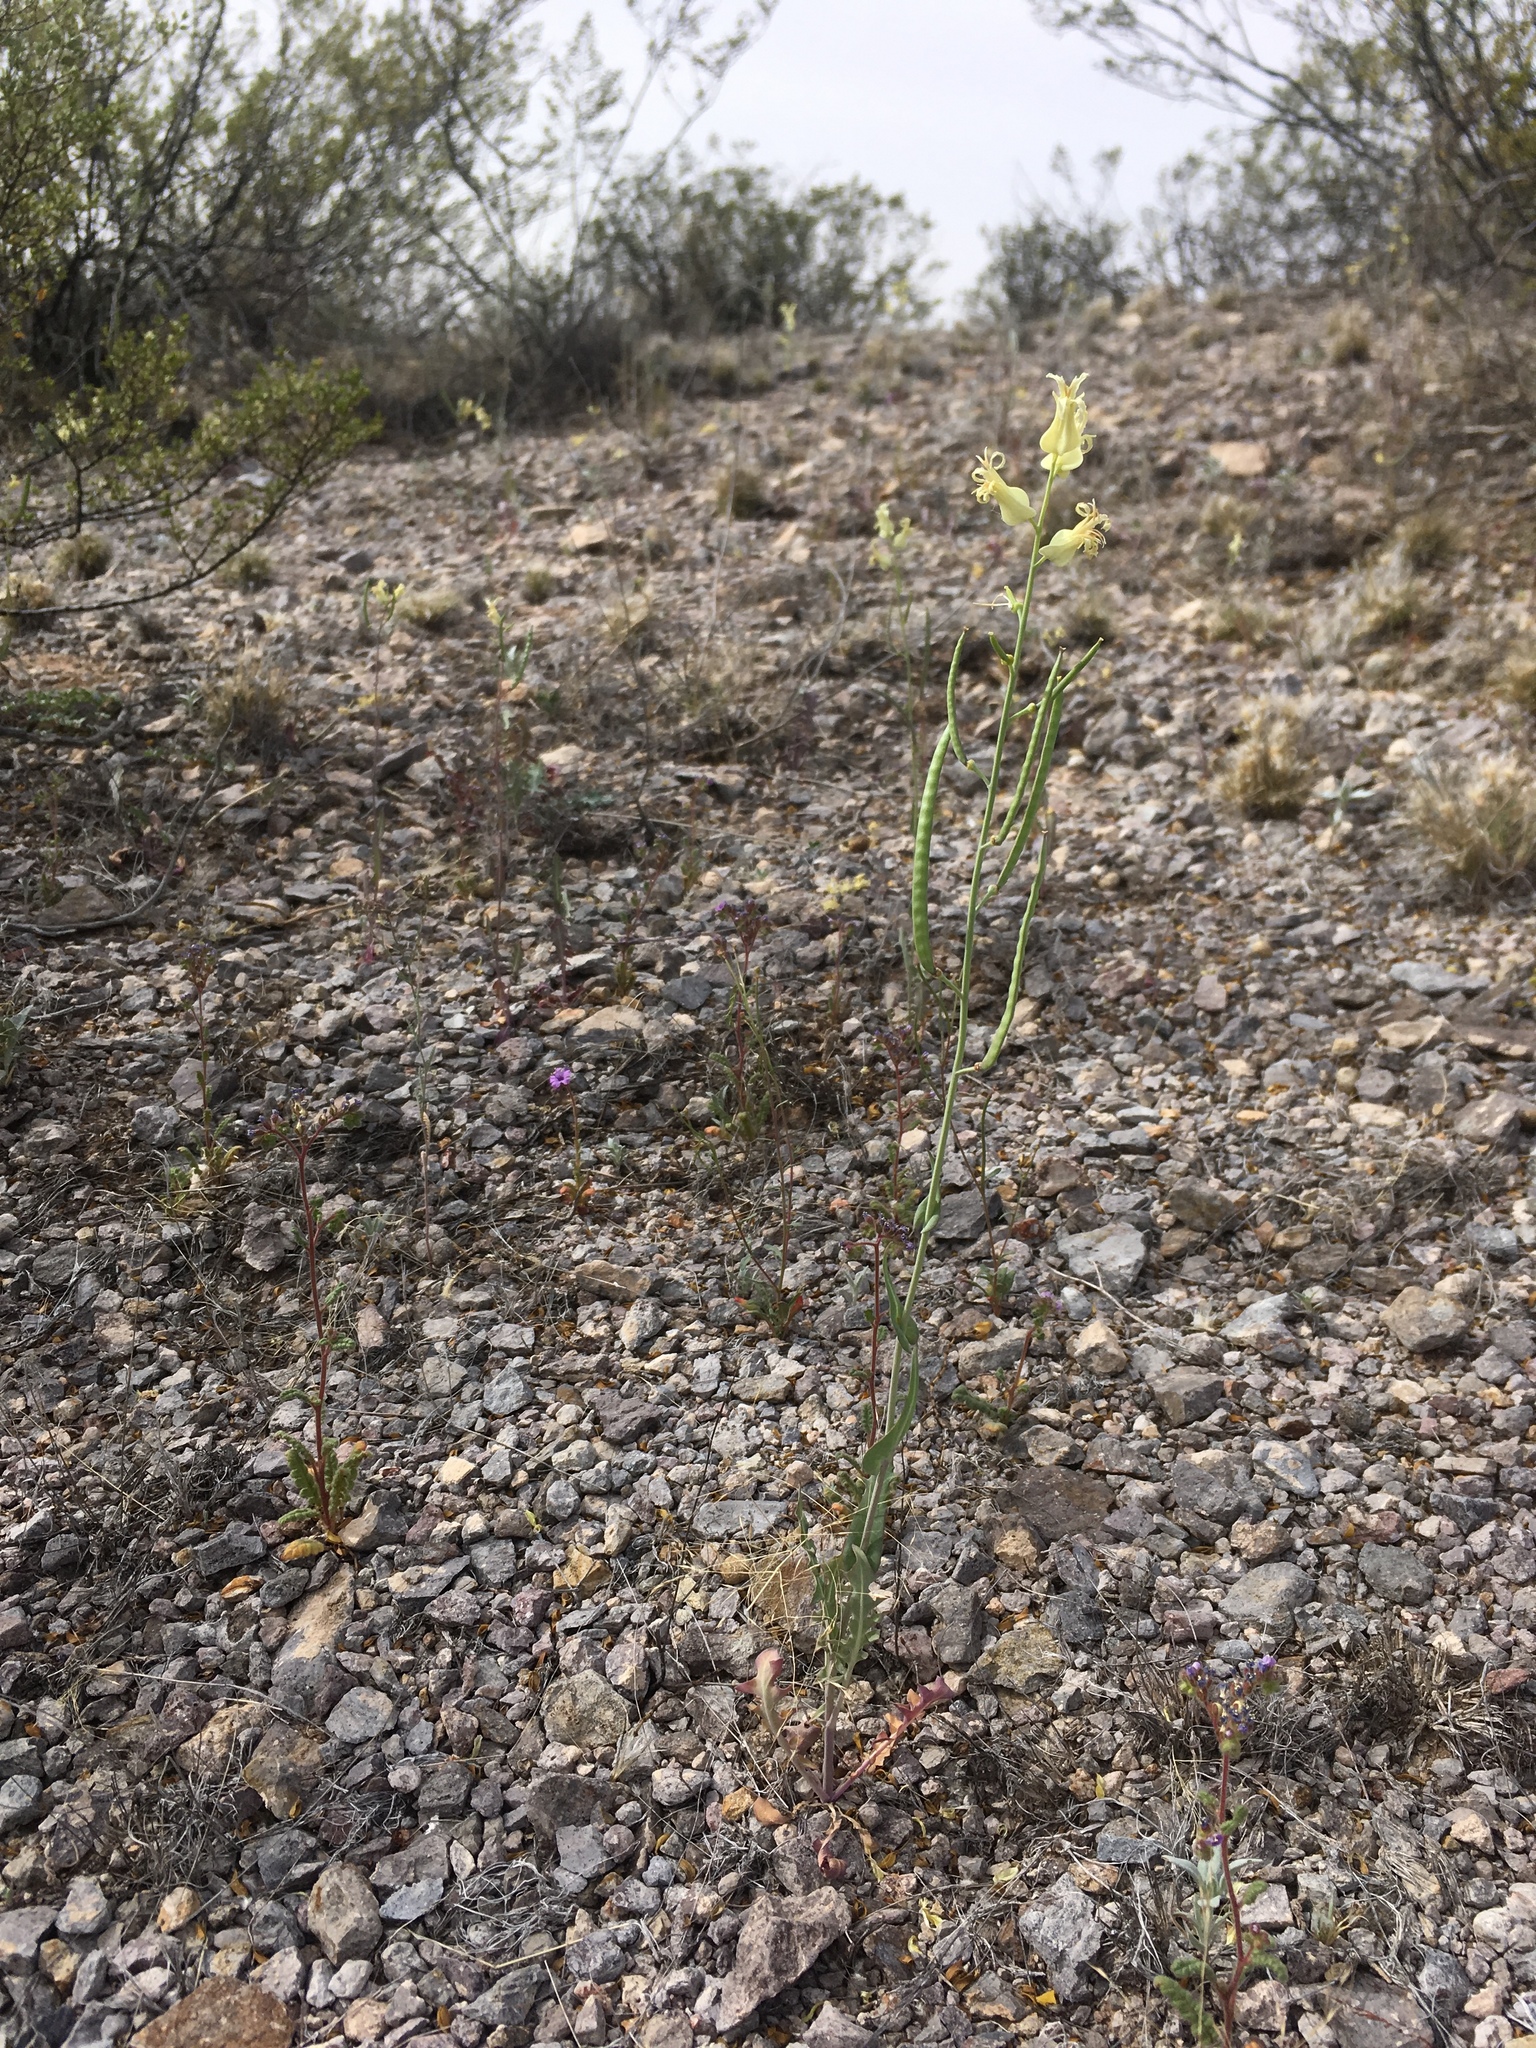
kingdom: Plantae
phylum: Tracheophyta
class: Magnoliopsida
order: Brassicales
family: Brassicaceae
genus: Streptanthus
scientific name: Streptanthus carinatus
